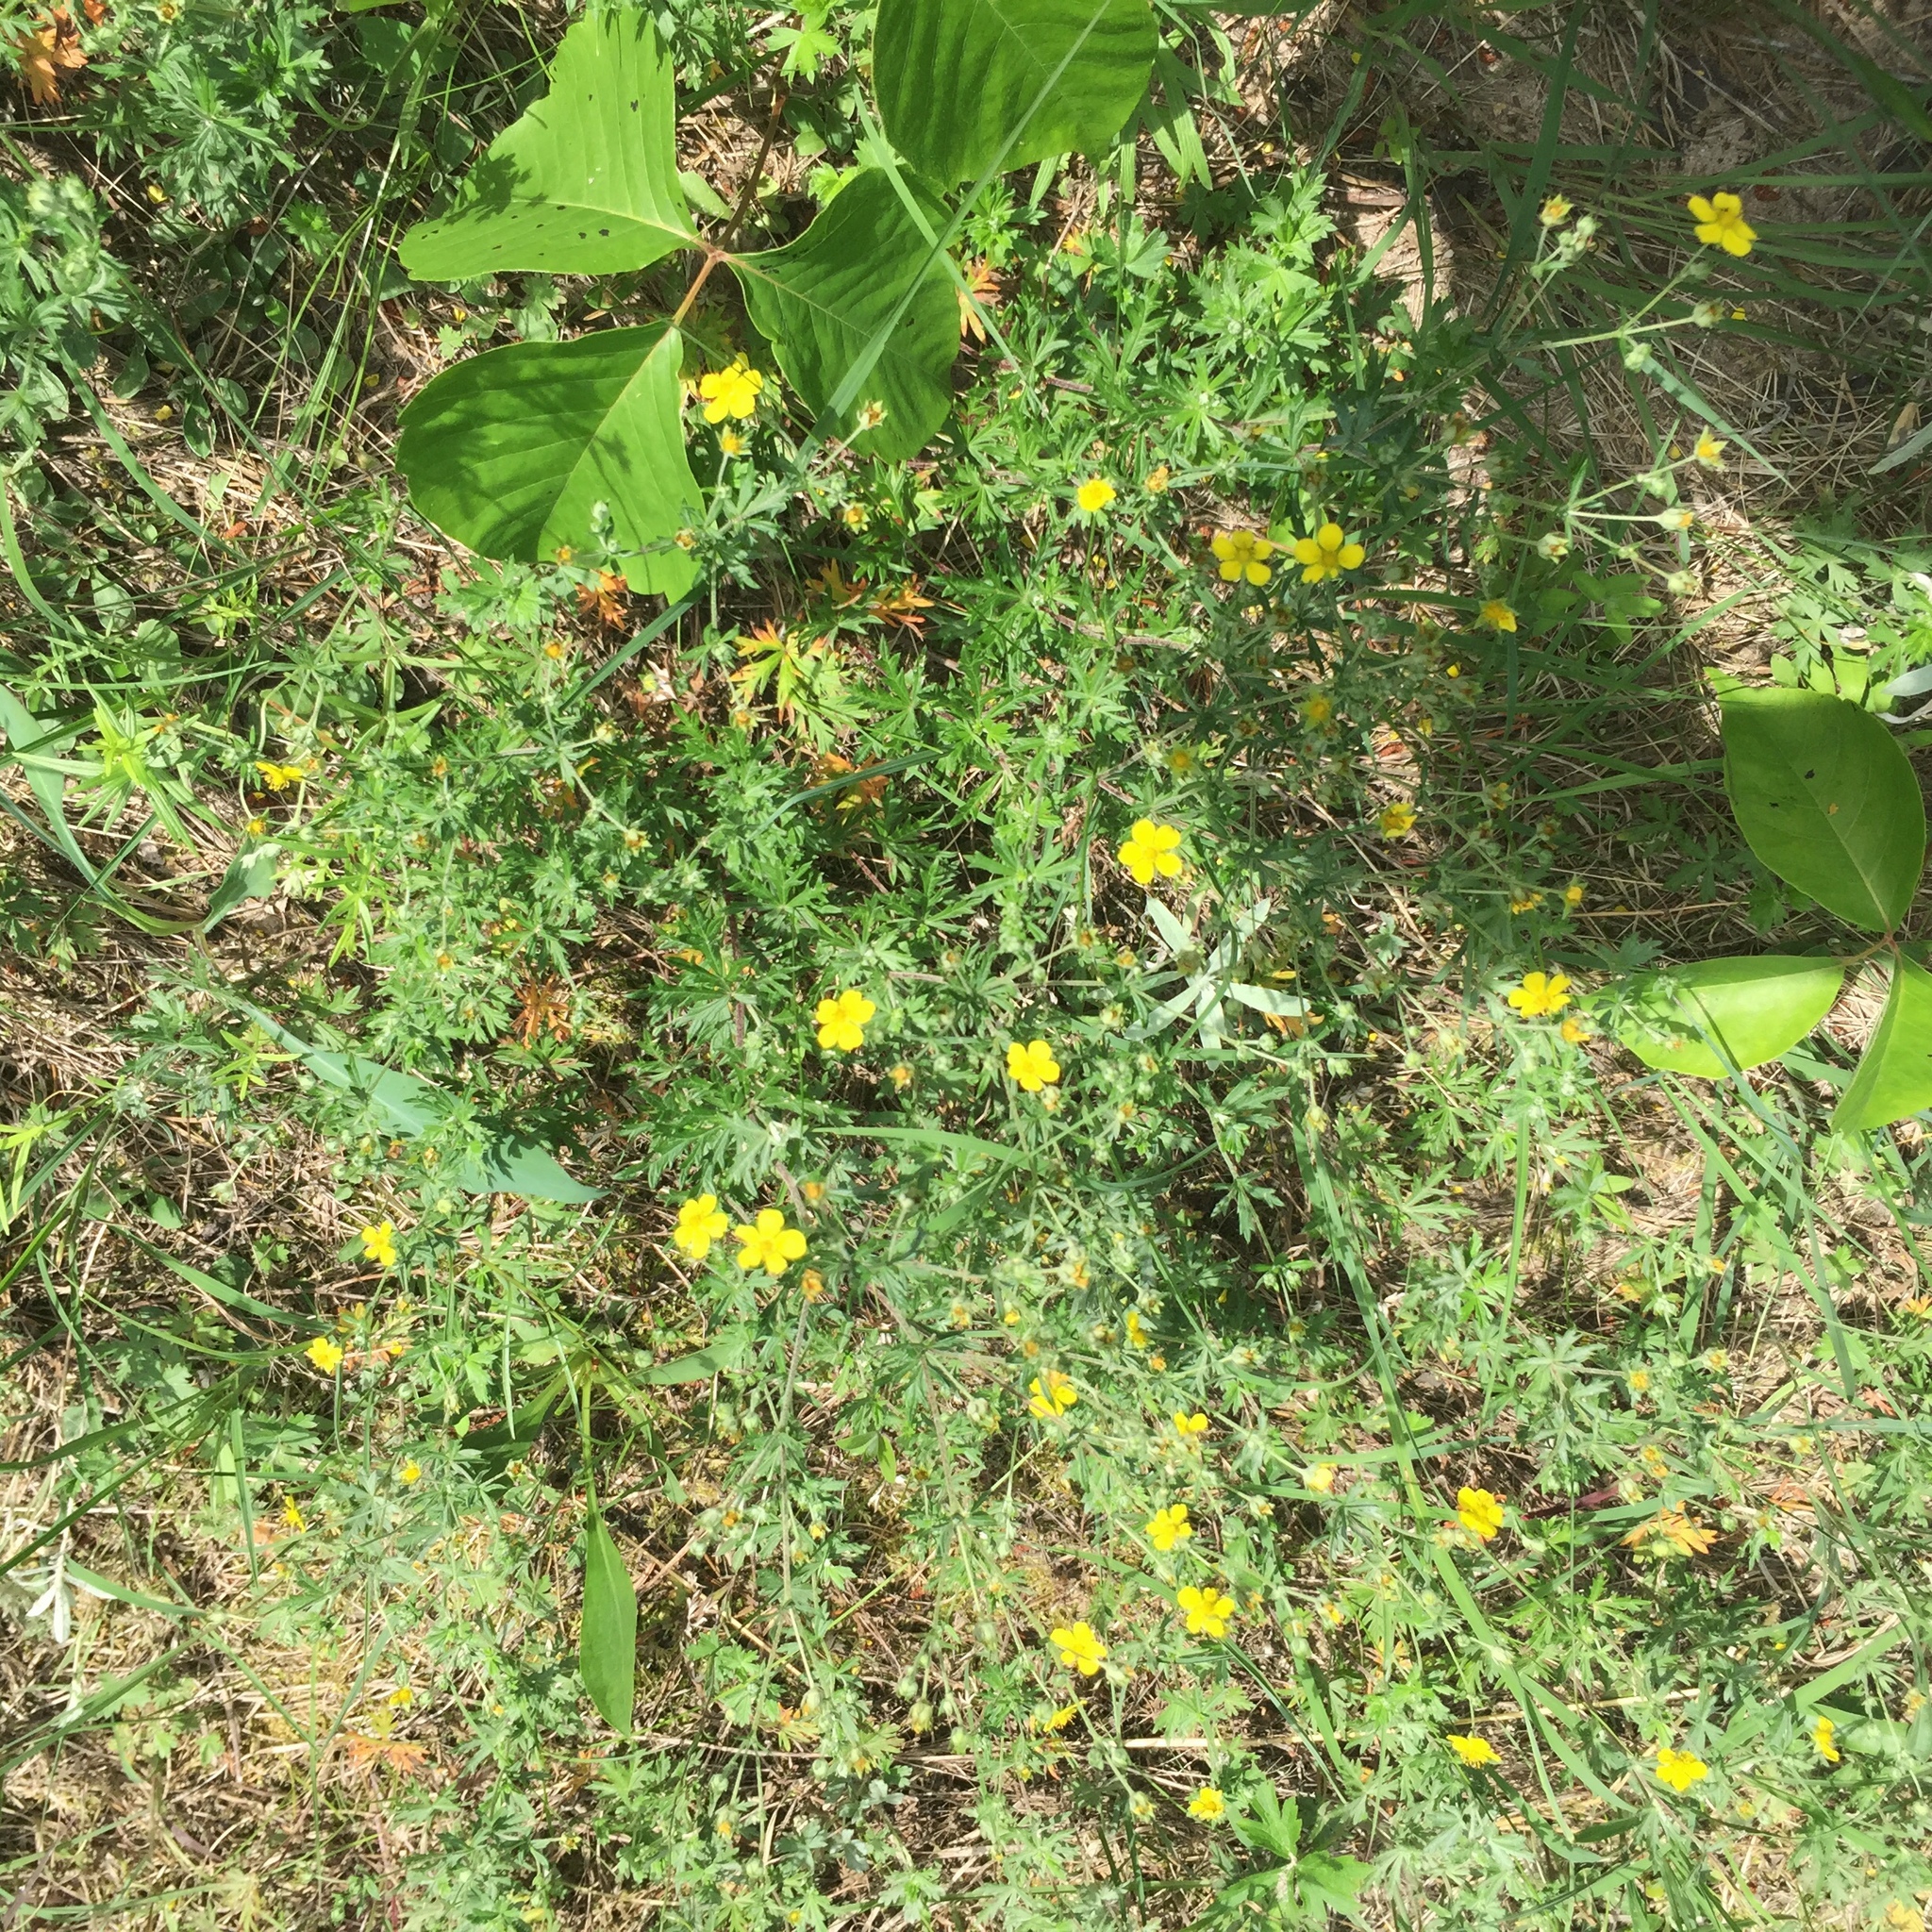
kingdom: Plantae
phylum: Tracheophyta
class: Magnoliopsida
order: Rosales
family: Rosaceae
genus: Potentilla
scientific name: Potentilla argentea
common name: Hoary cinquefoil
